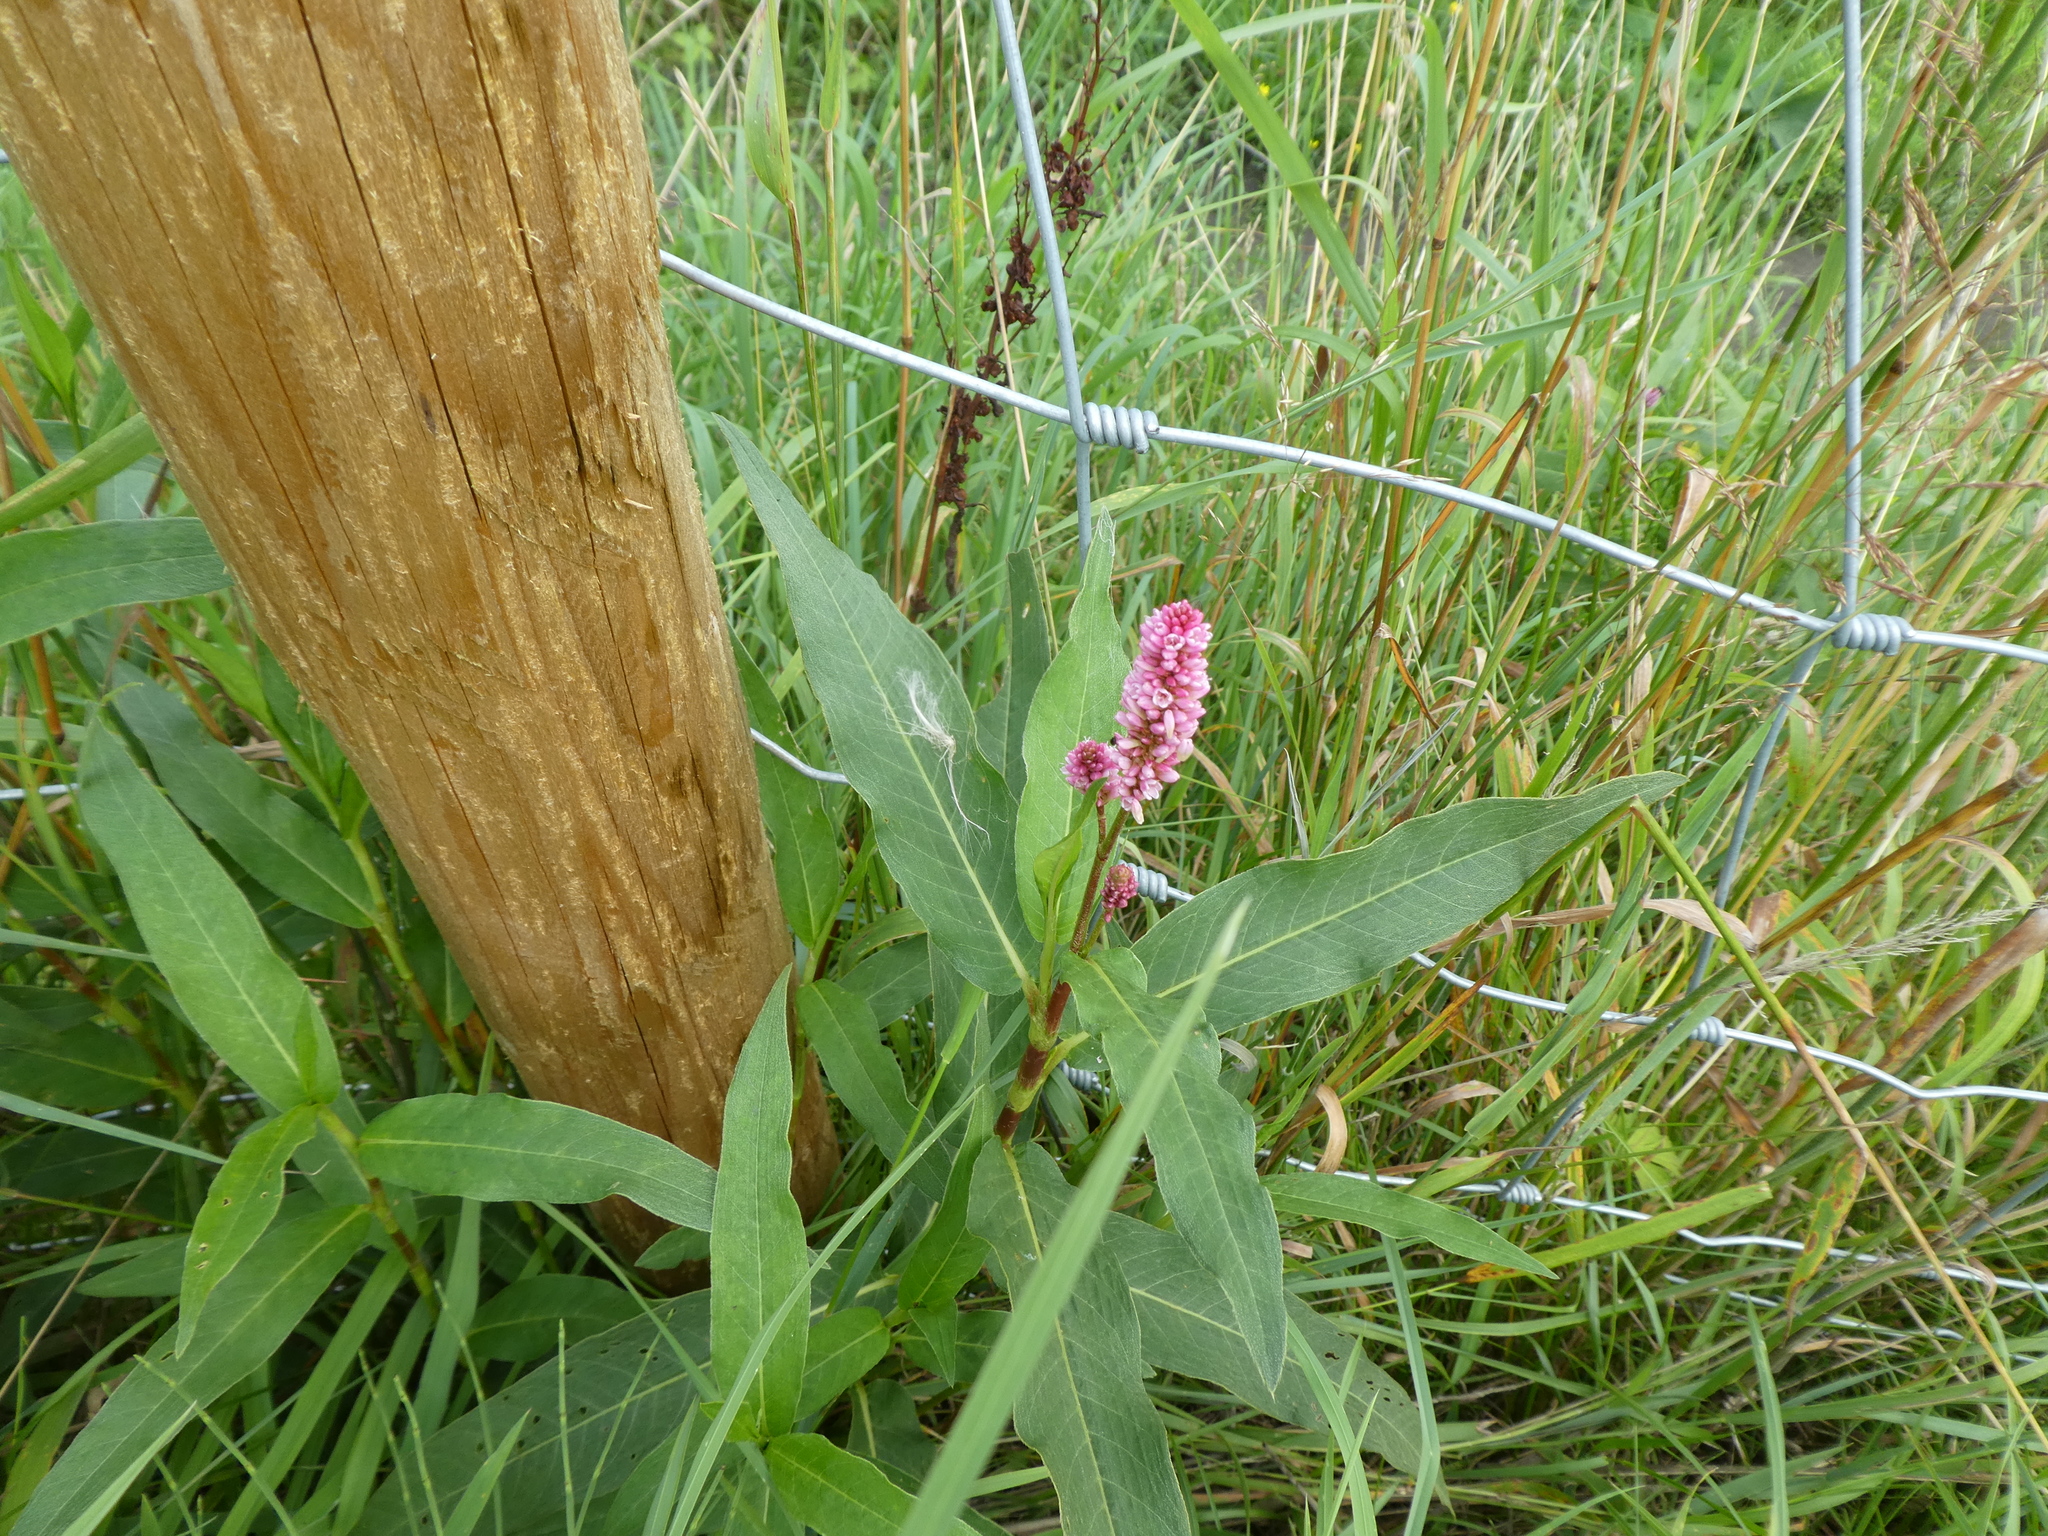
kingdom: Plantae
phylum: Tracheophyta
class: Magnoliopsida
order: Caryophyllales
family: Polygonaceae
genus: Persicaria
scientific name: Persicaria amphibia
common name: Amphibious bistort
